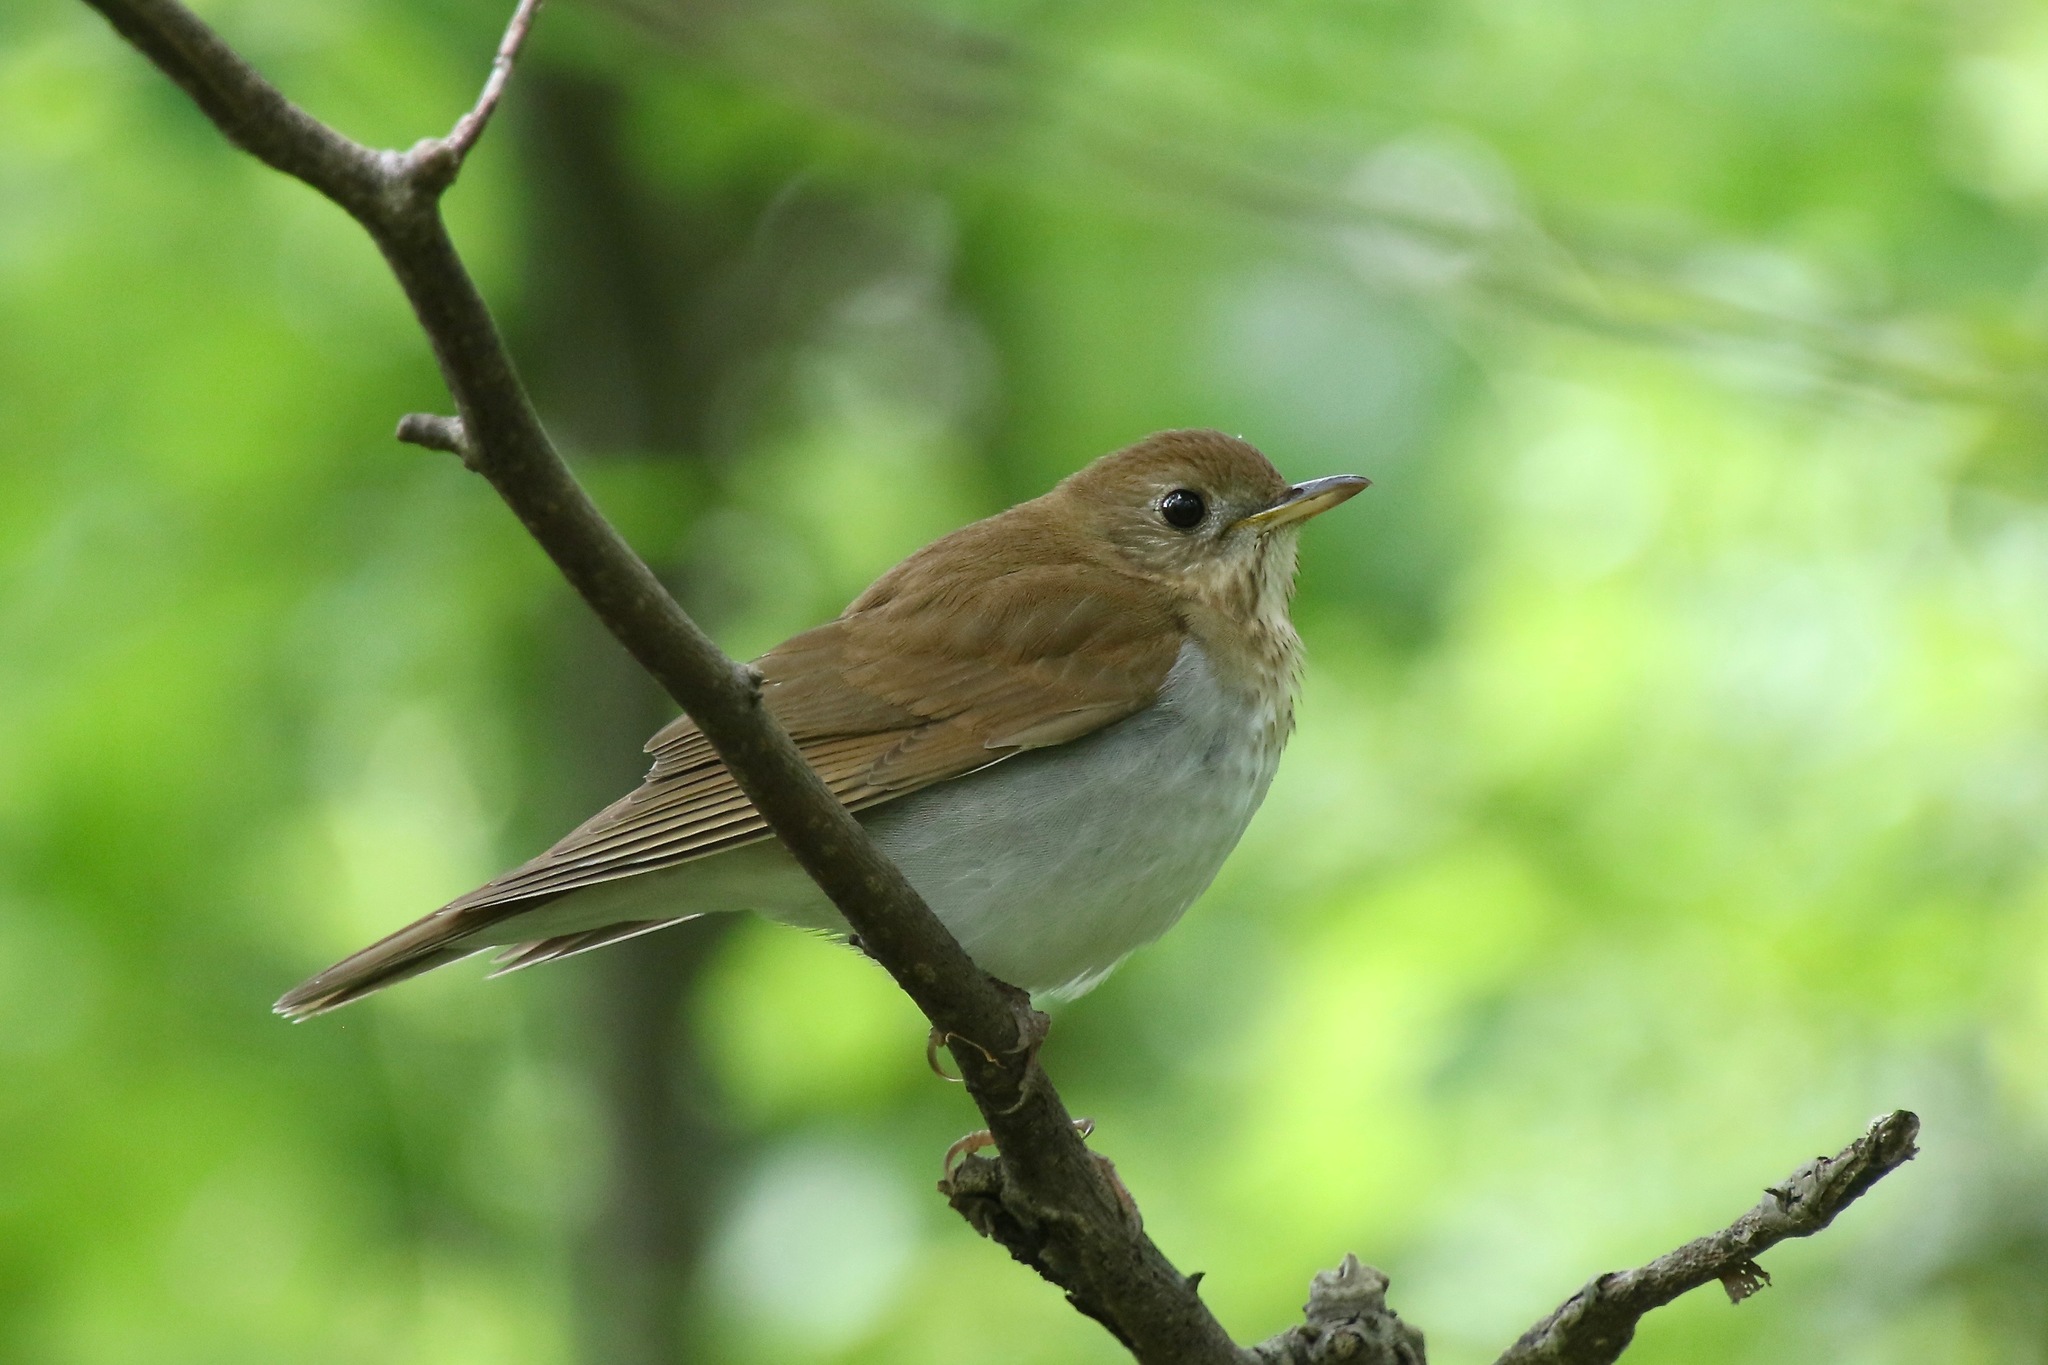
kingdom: Animalia
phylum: Chordata
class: Aves
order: Passeriformes
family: Turdidae
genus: Catharus
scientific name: Catharus fuscescens
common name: Veery
